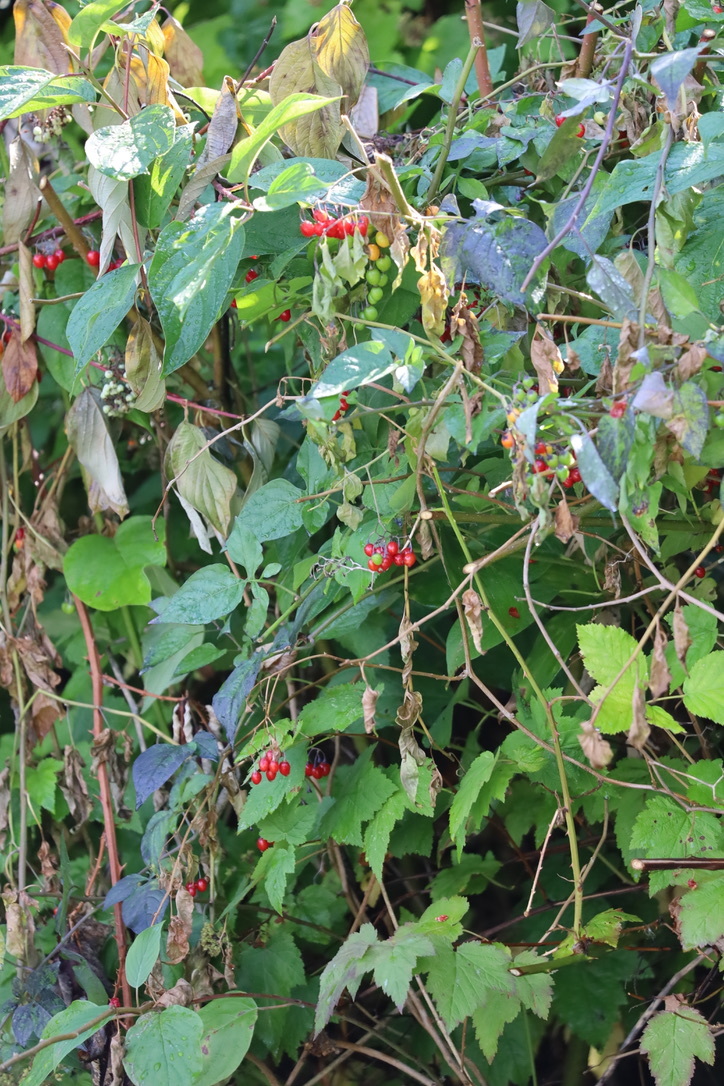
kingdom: Plantae
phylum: Tracheophyta
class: Magnoliopsida
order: Solanales
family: Solanaceae
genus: Solanum
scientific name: Solanum dulcamara
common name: Climbing nightshade
